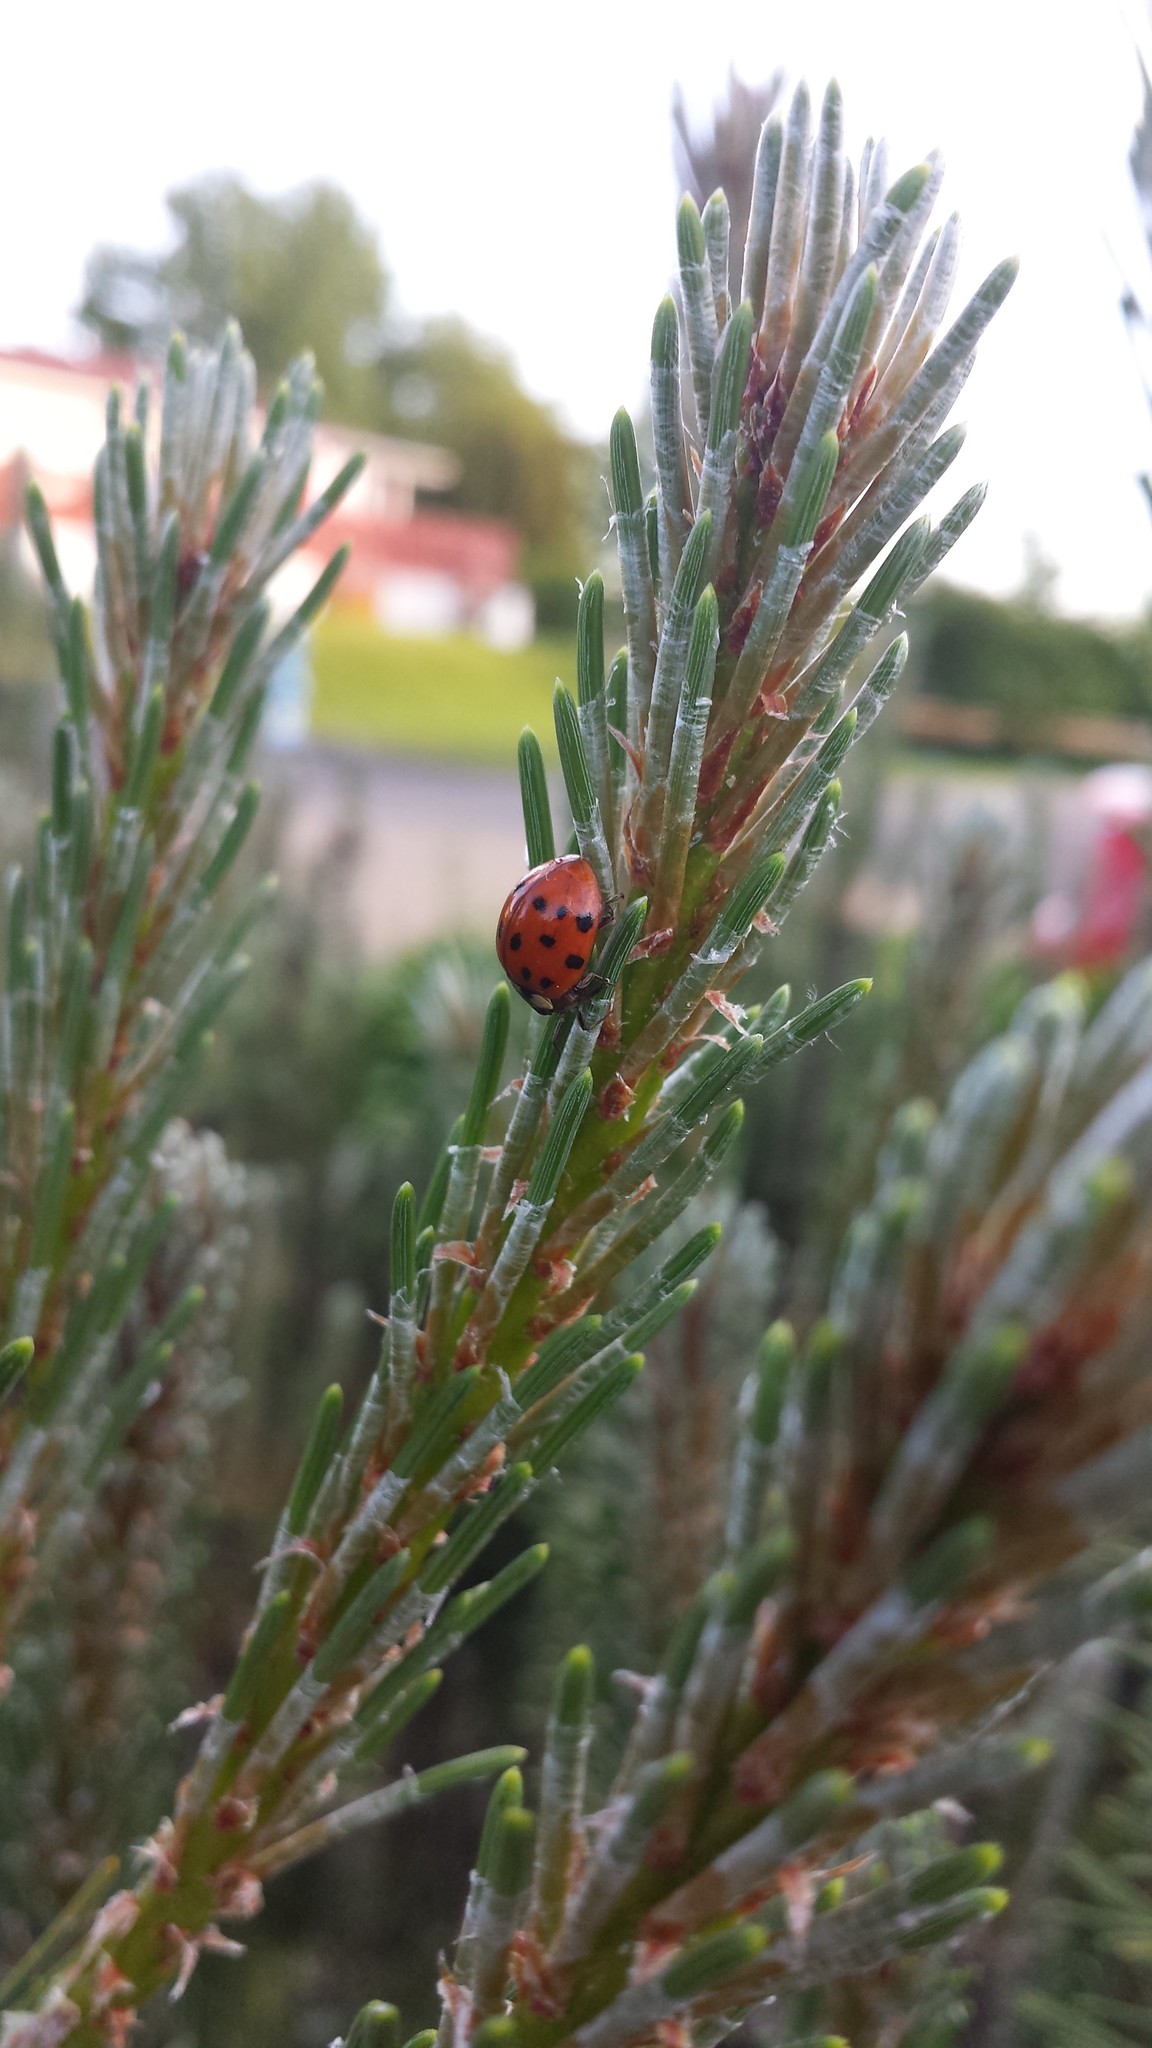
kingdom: Animalia
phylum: Arthropoda
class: Insecta
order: Coleoptera
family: Coccinellidae
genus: Harmonia
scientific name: Harmonia axyridis
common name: Harlequin ladybird
